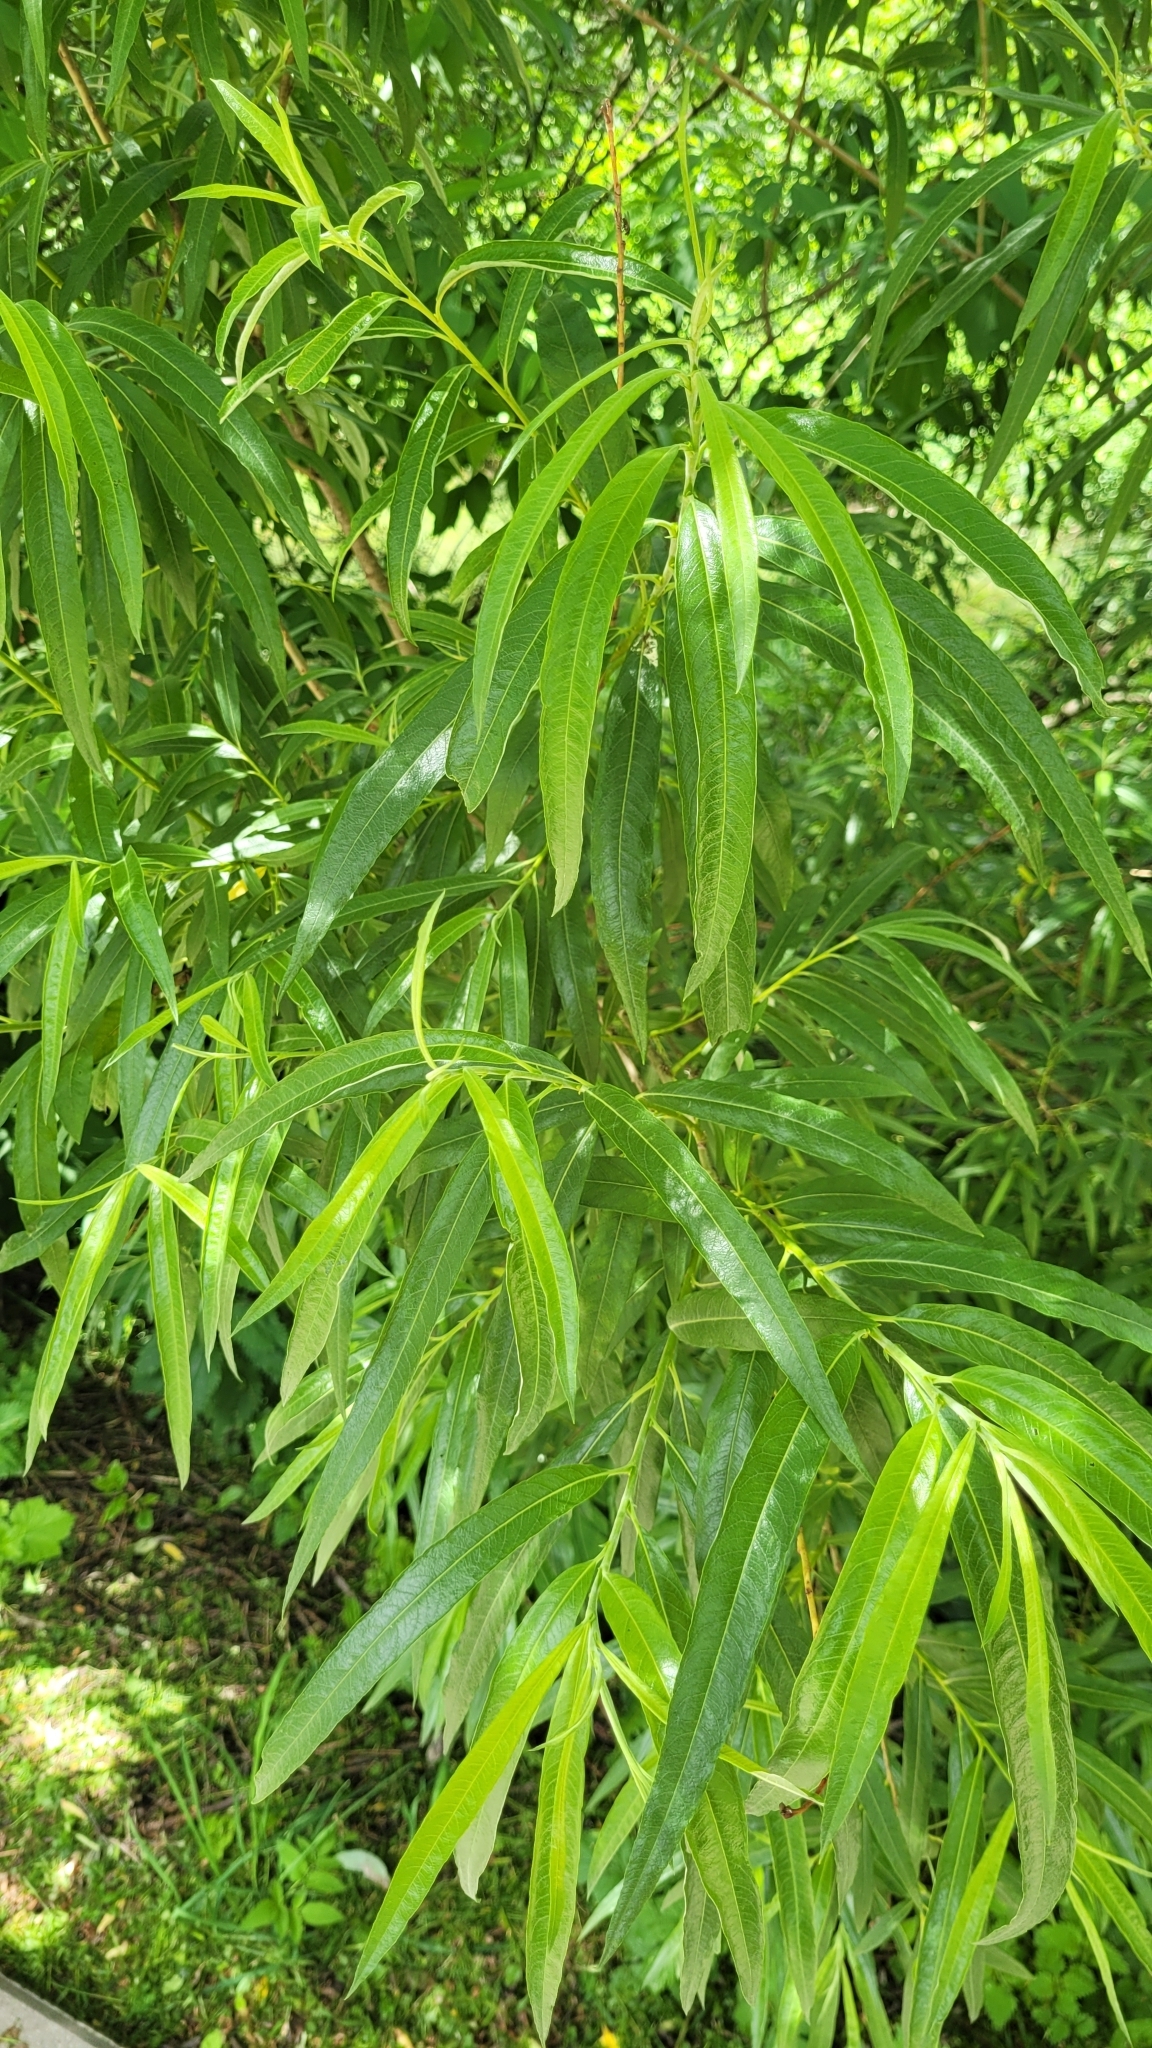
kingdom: Plantae
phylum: Tracheophyta
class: Magnoliopsida
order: Malpighiales
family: Salicaceae
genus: Salix
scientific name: Salix gmelinii
